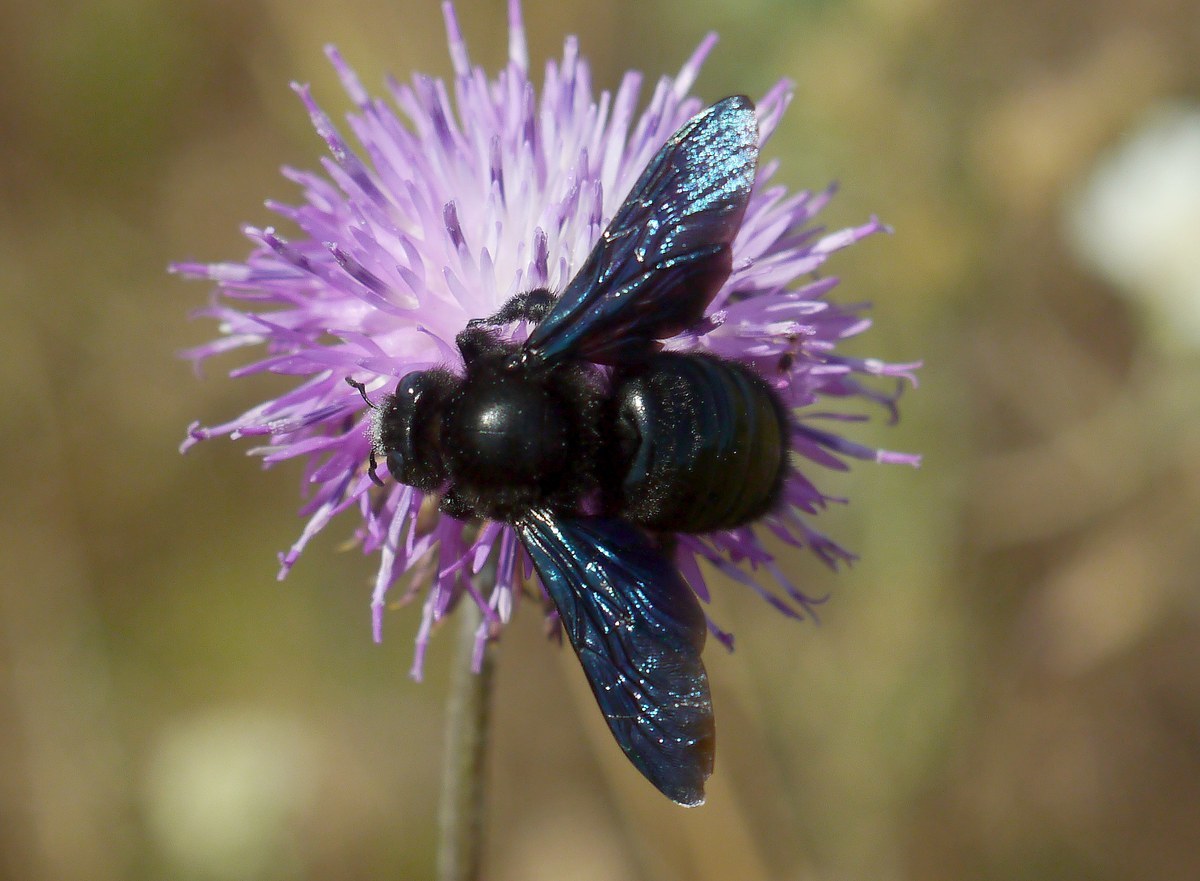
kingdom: Animalia
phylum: Arthropoda
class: Insecta
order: Hymenoptera
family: Apidae
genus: Xylocopa
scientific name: Xylocopa
